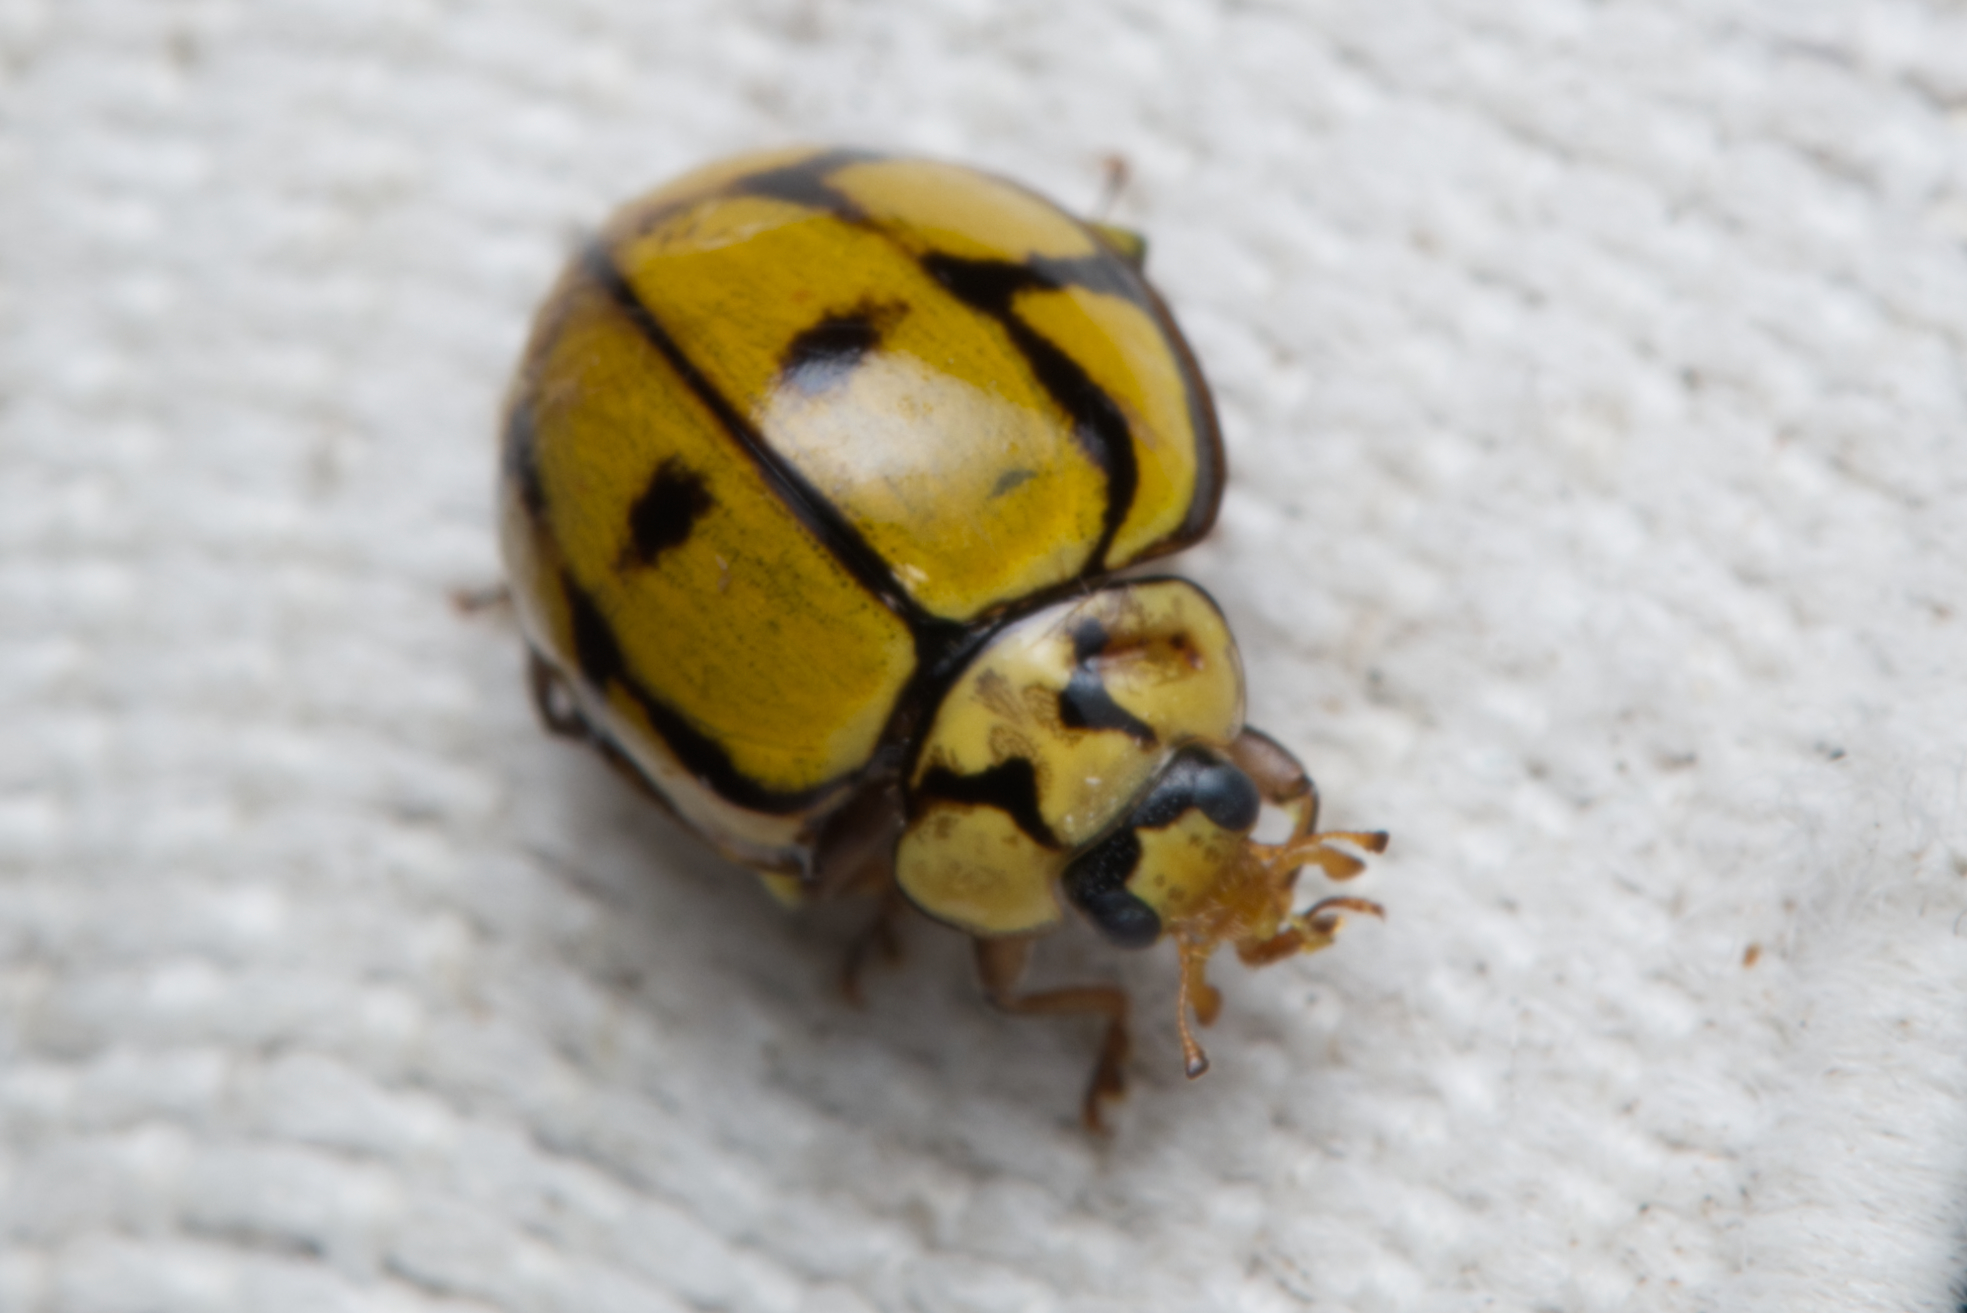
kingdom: Animalia
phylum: Arthropoda
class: Insecta
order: Coleoptera
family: Coccinellidae
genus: Harmonia
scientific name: Harmonia
